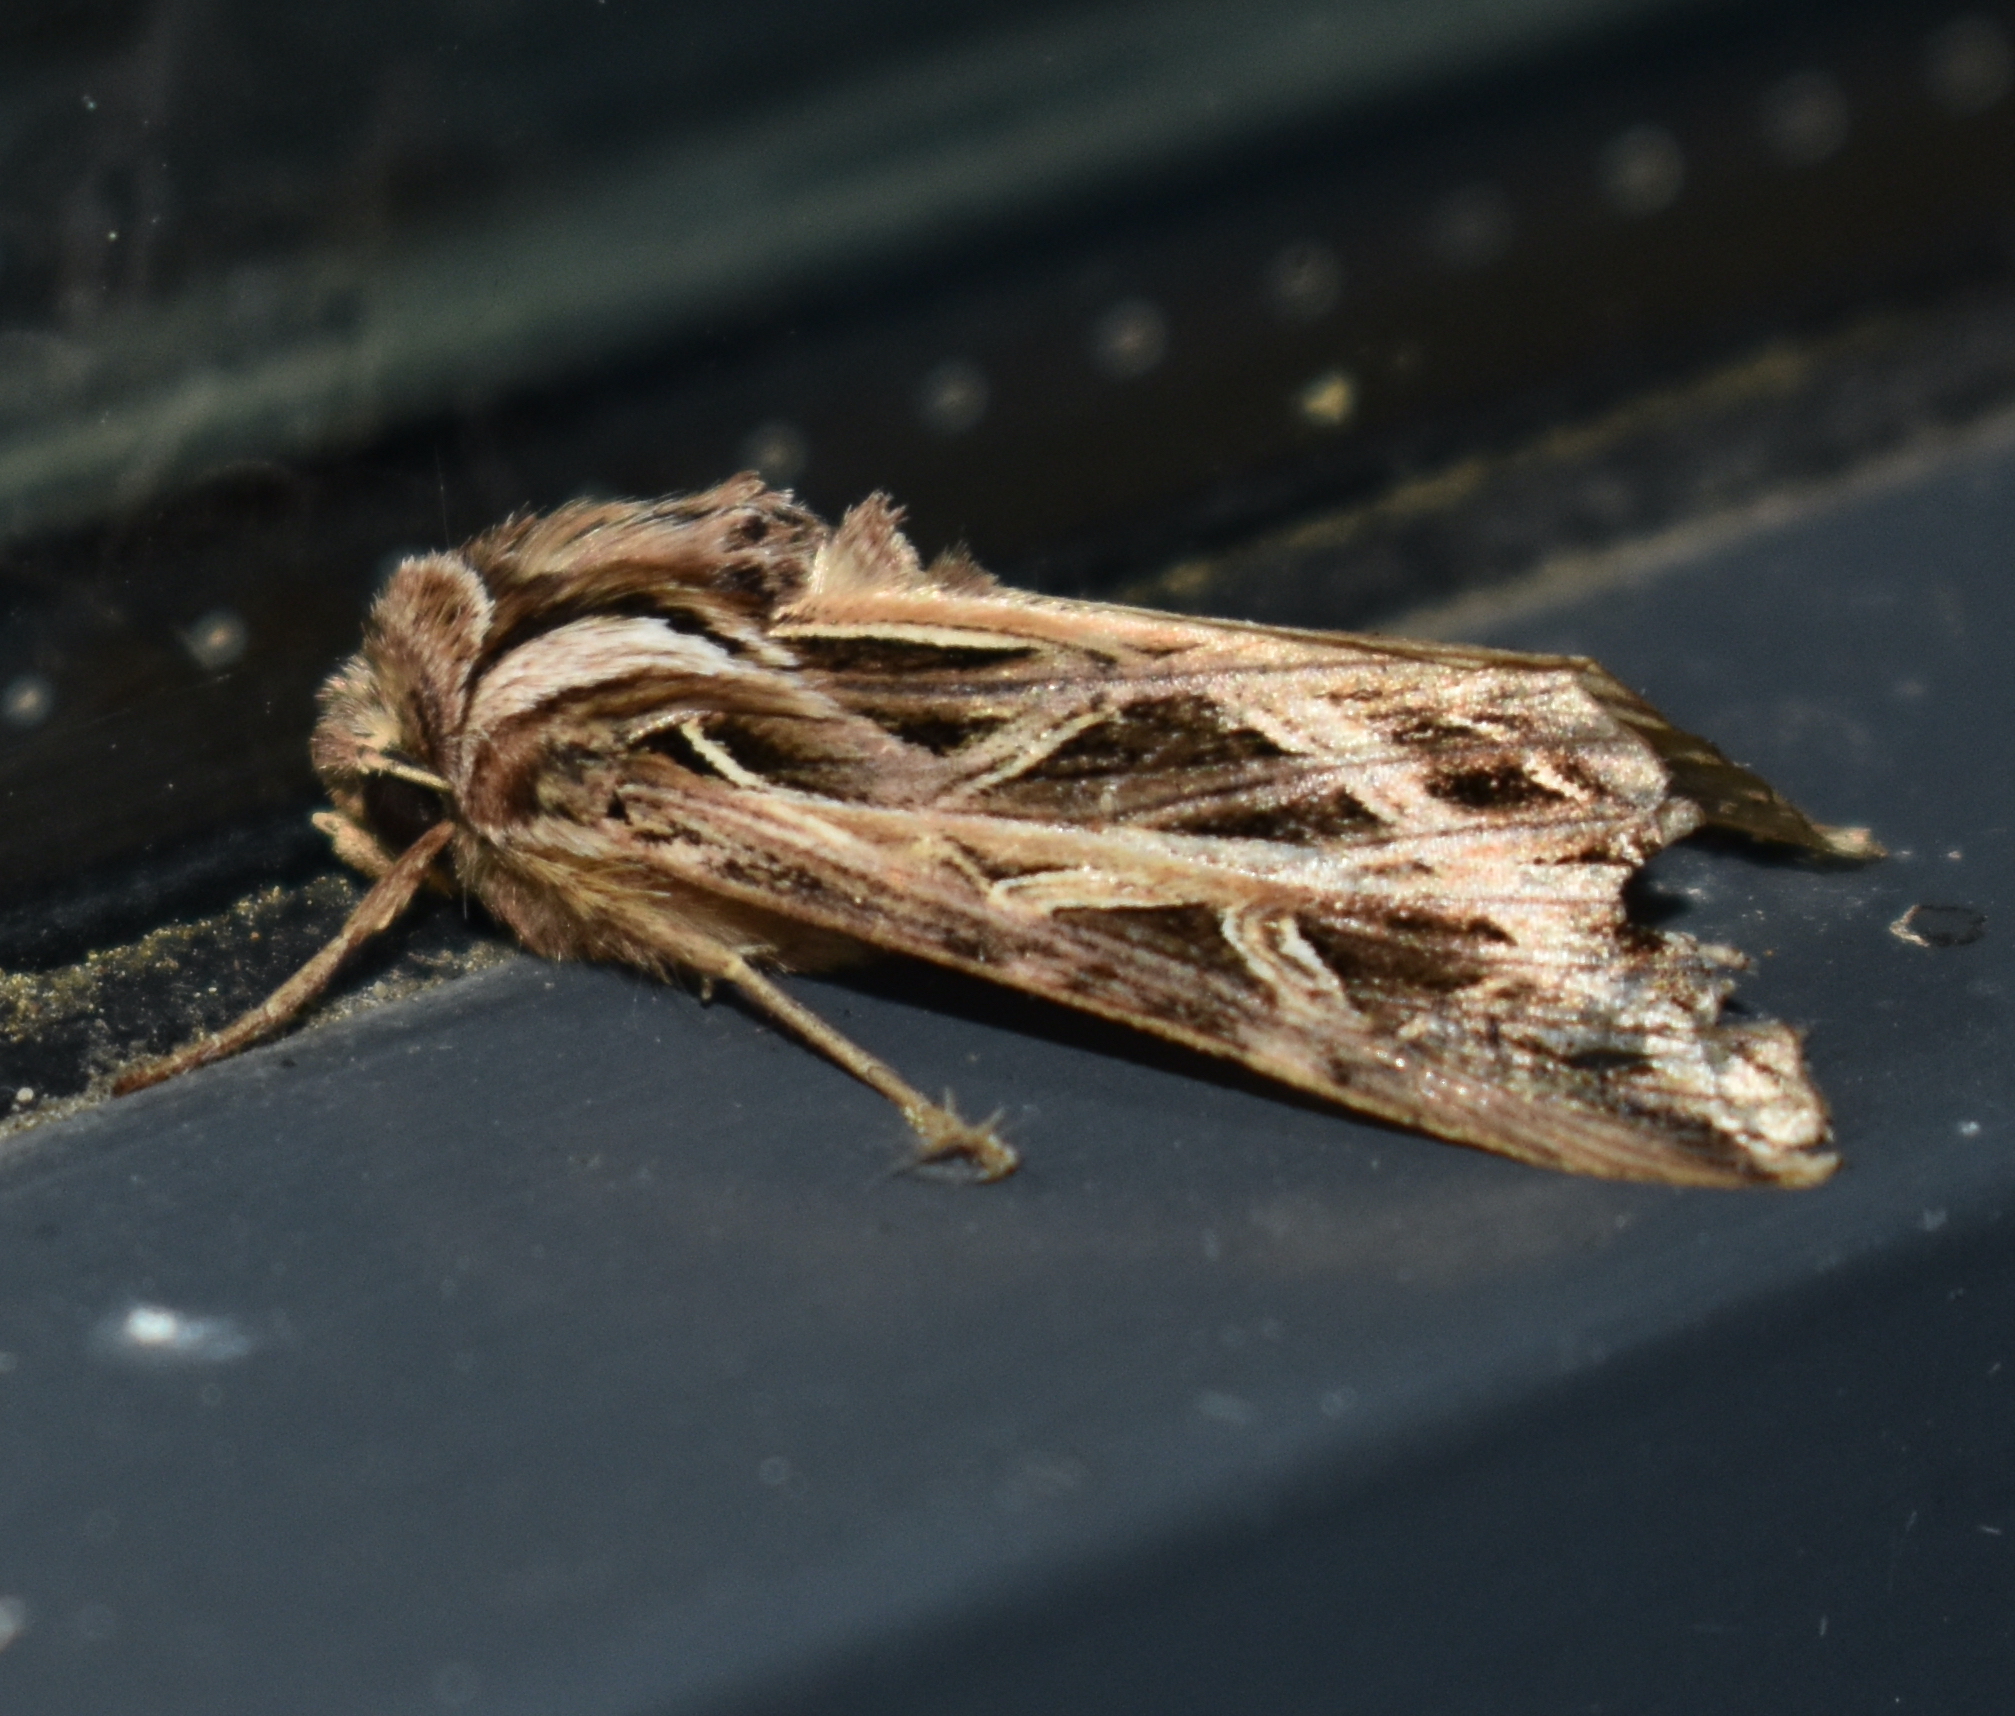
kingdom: Animalia
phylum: Arthropoda
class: Insecta
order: Lepidoptera
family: Noctuidae
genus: Dargida
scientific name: Dargida procinctus
